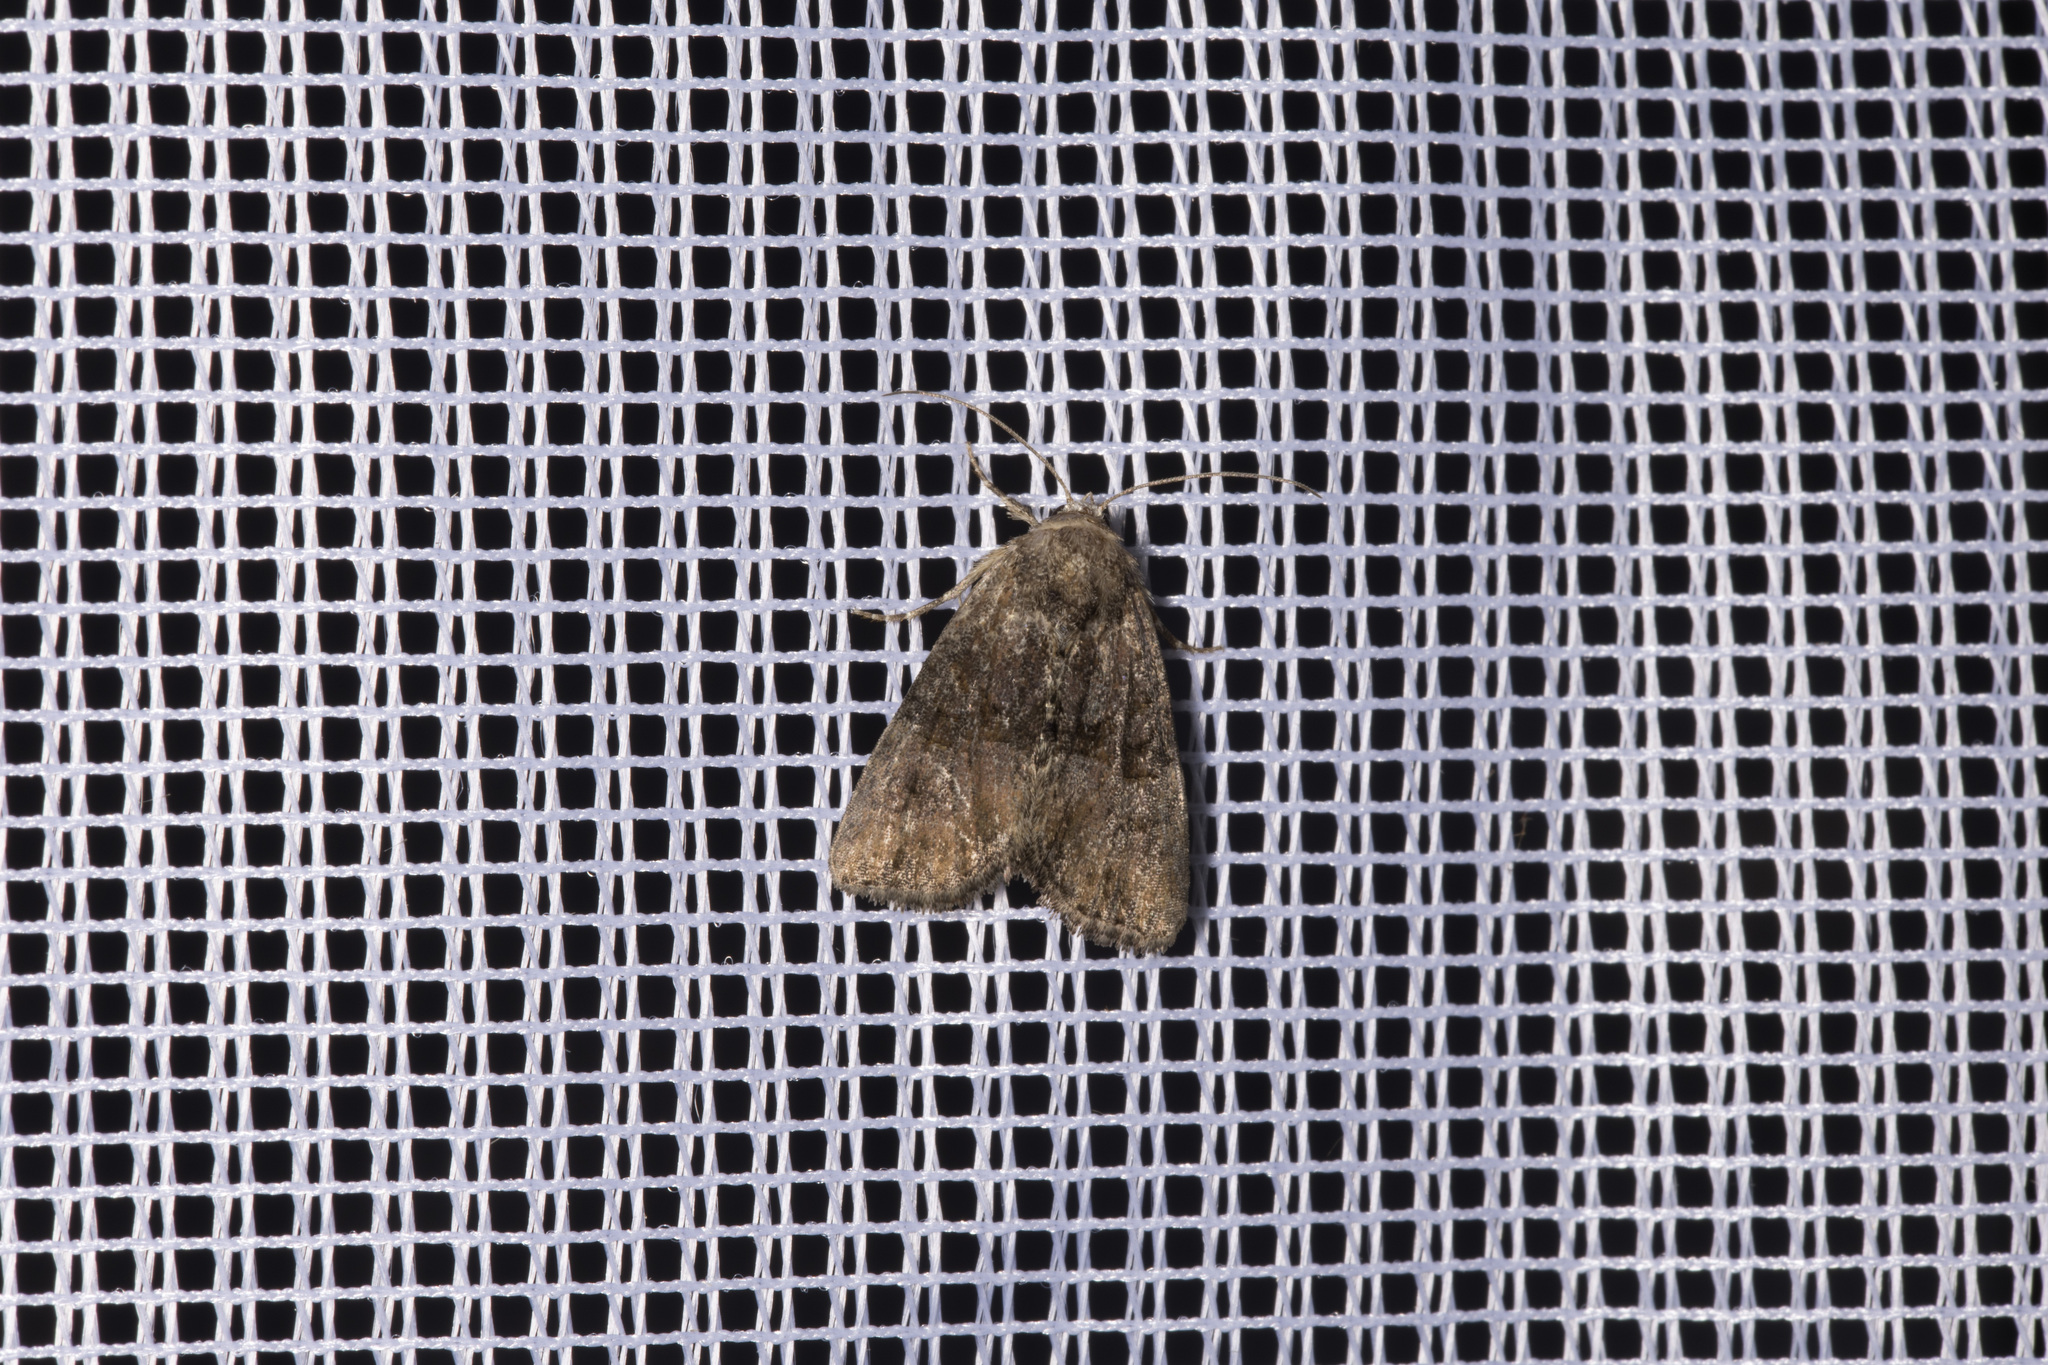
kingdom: Animalia
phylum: Arthropoda
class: Insecta
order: Lepidoptera
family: Noctuidae
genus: Mesoligia
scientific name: Mesoligia furuncula
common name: Cloaked minor
